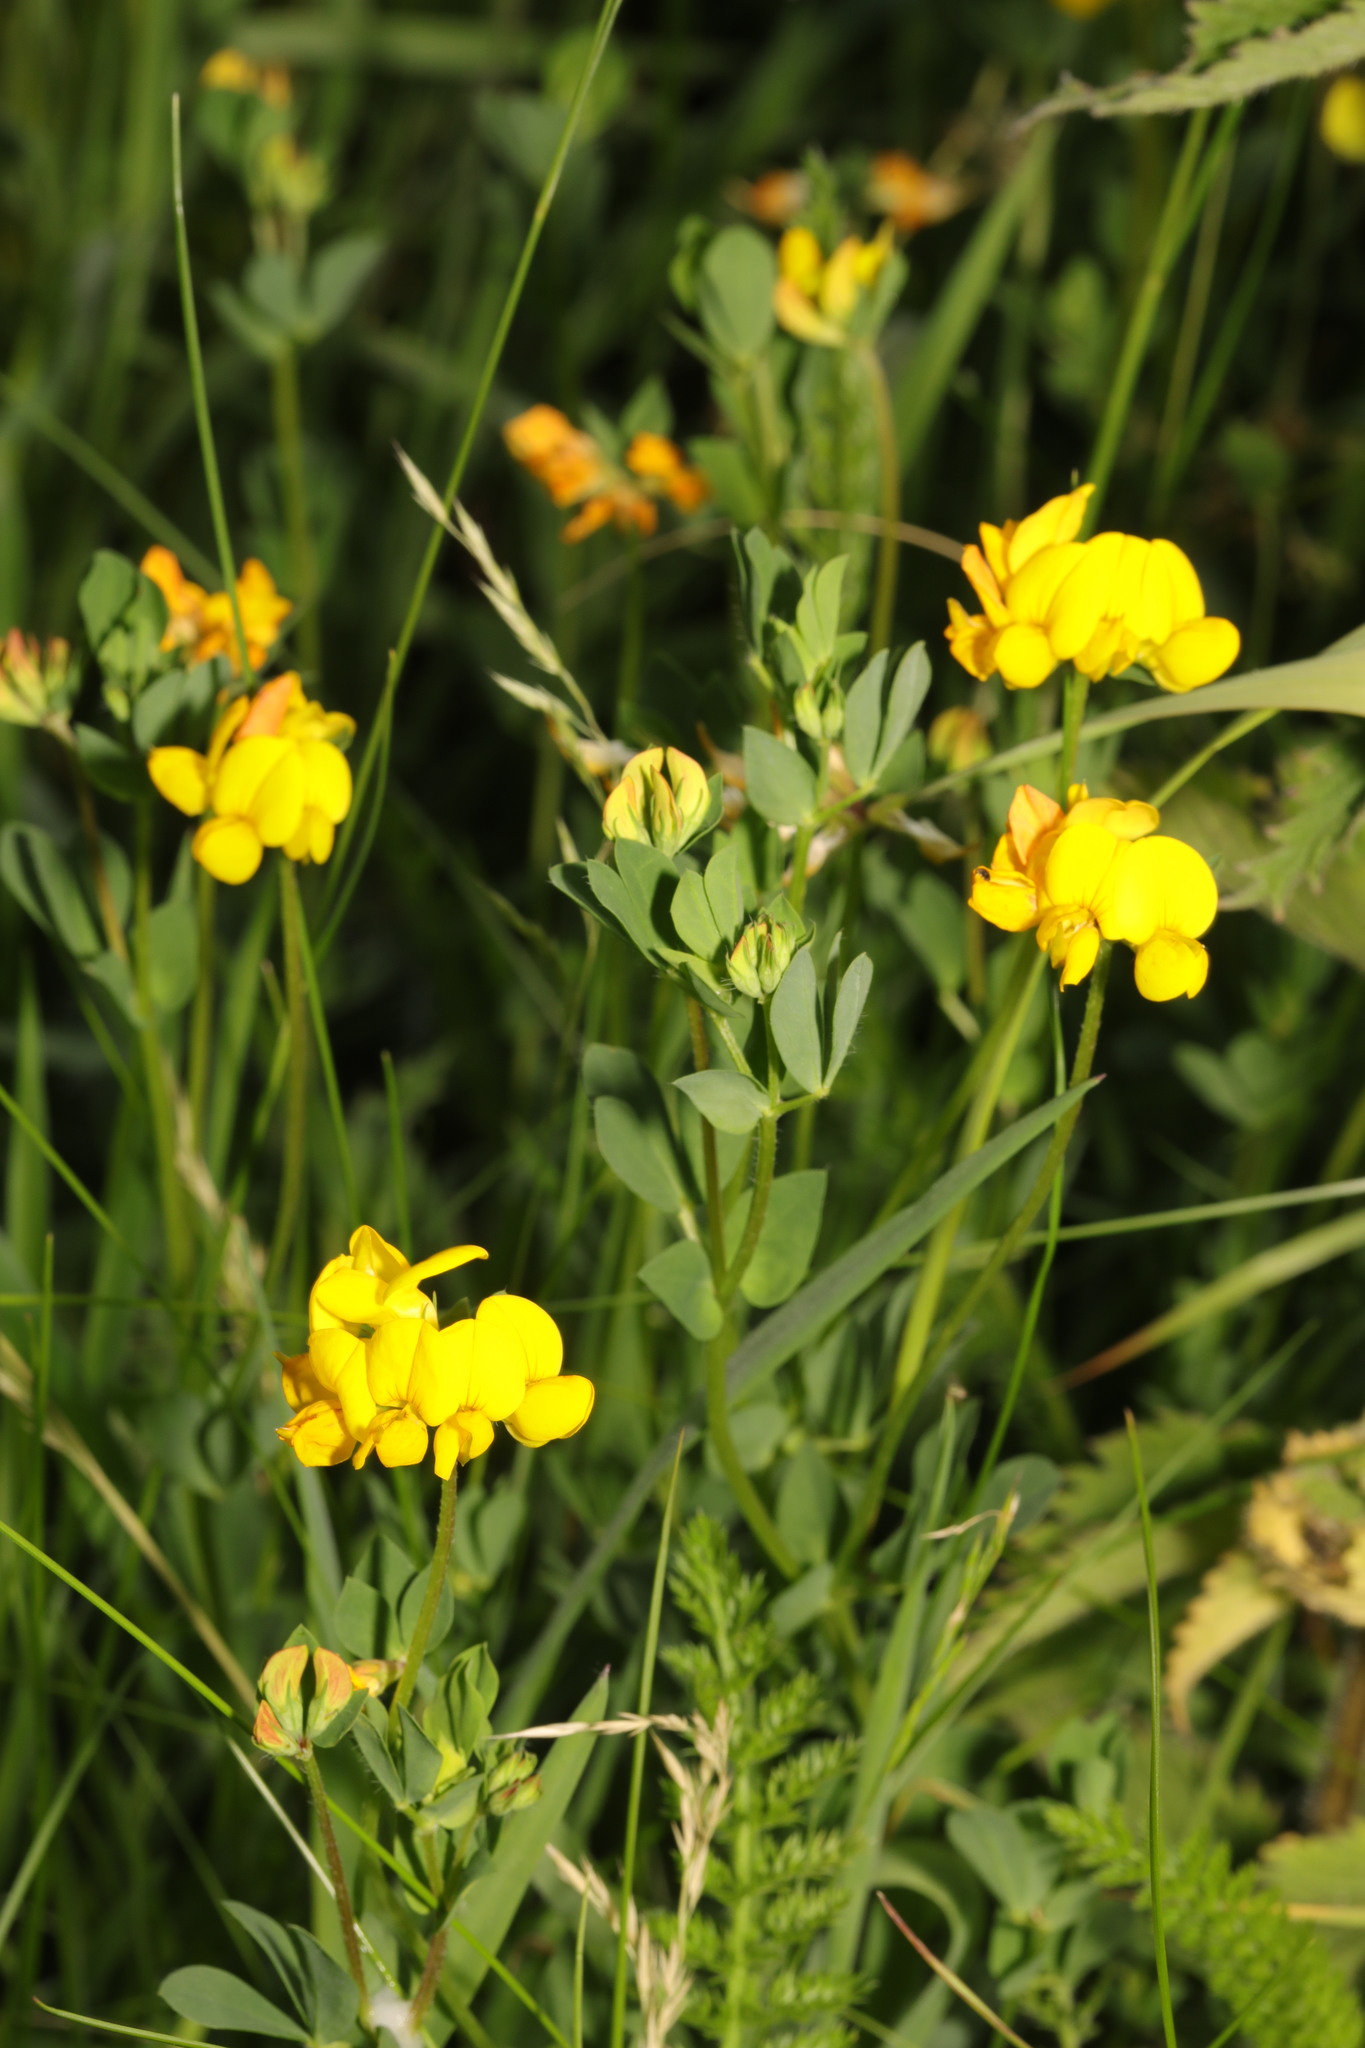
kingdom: Plantae
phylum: Tracheophyta
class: Magnoliopsida
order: Fabales
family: Fabaceae
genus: Lotus
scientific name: Lotus corniculatus
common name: Common bird's-foot-trefoil
